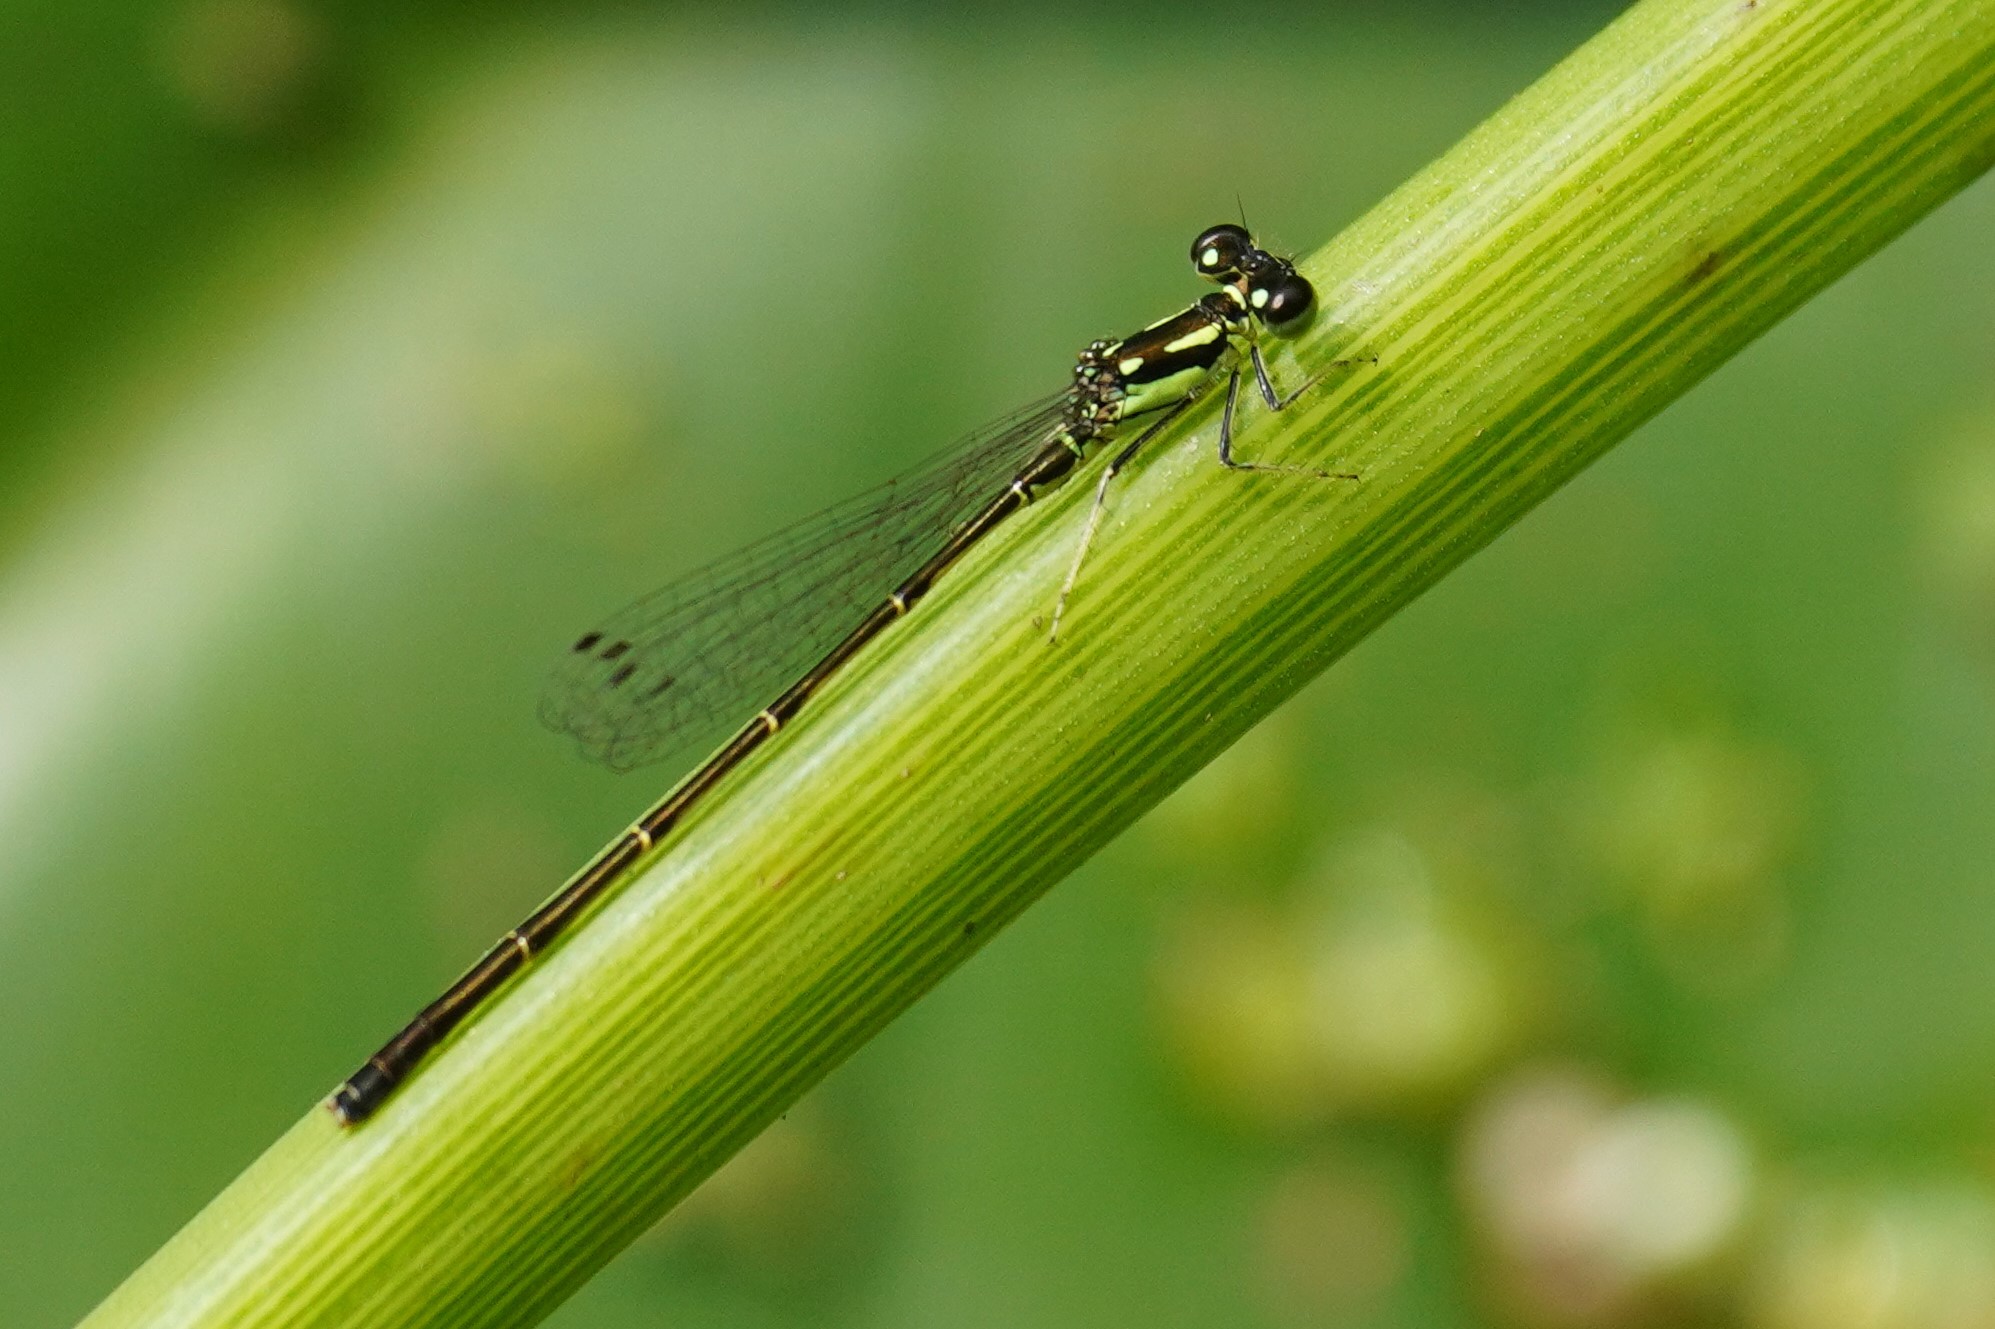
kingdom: Animalia
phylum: Arthropoda
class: Insecta
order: Odonata
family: Coenagrionidae
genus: Ischnura
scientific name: Ischnura posita
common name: Fragile forktail
